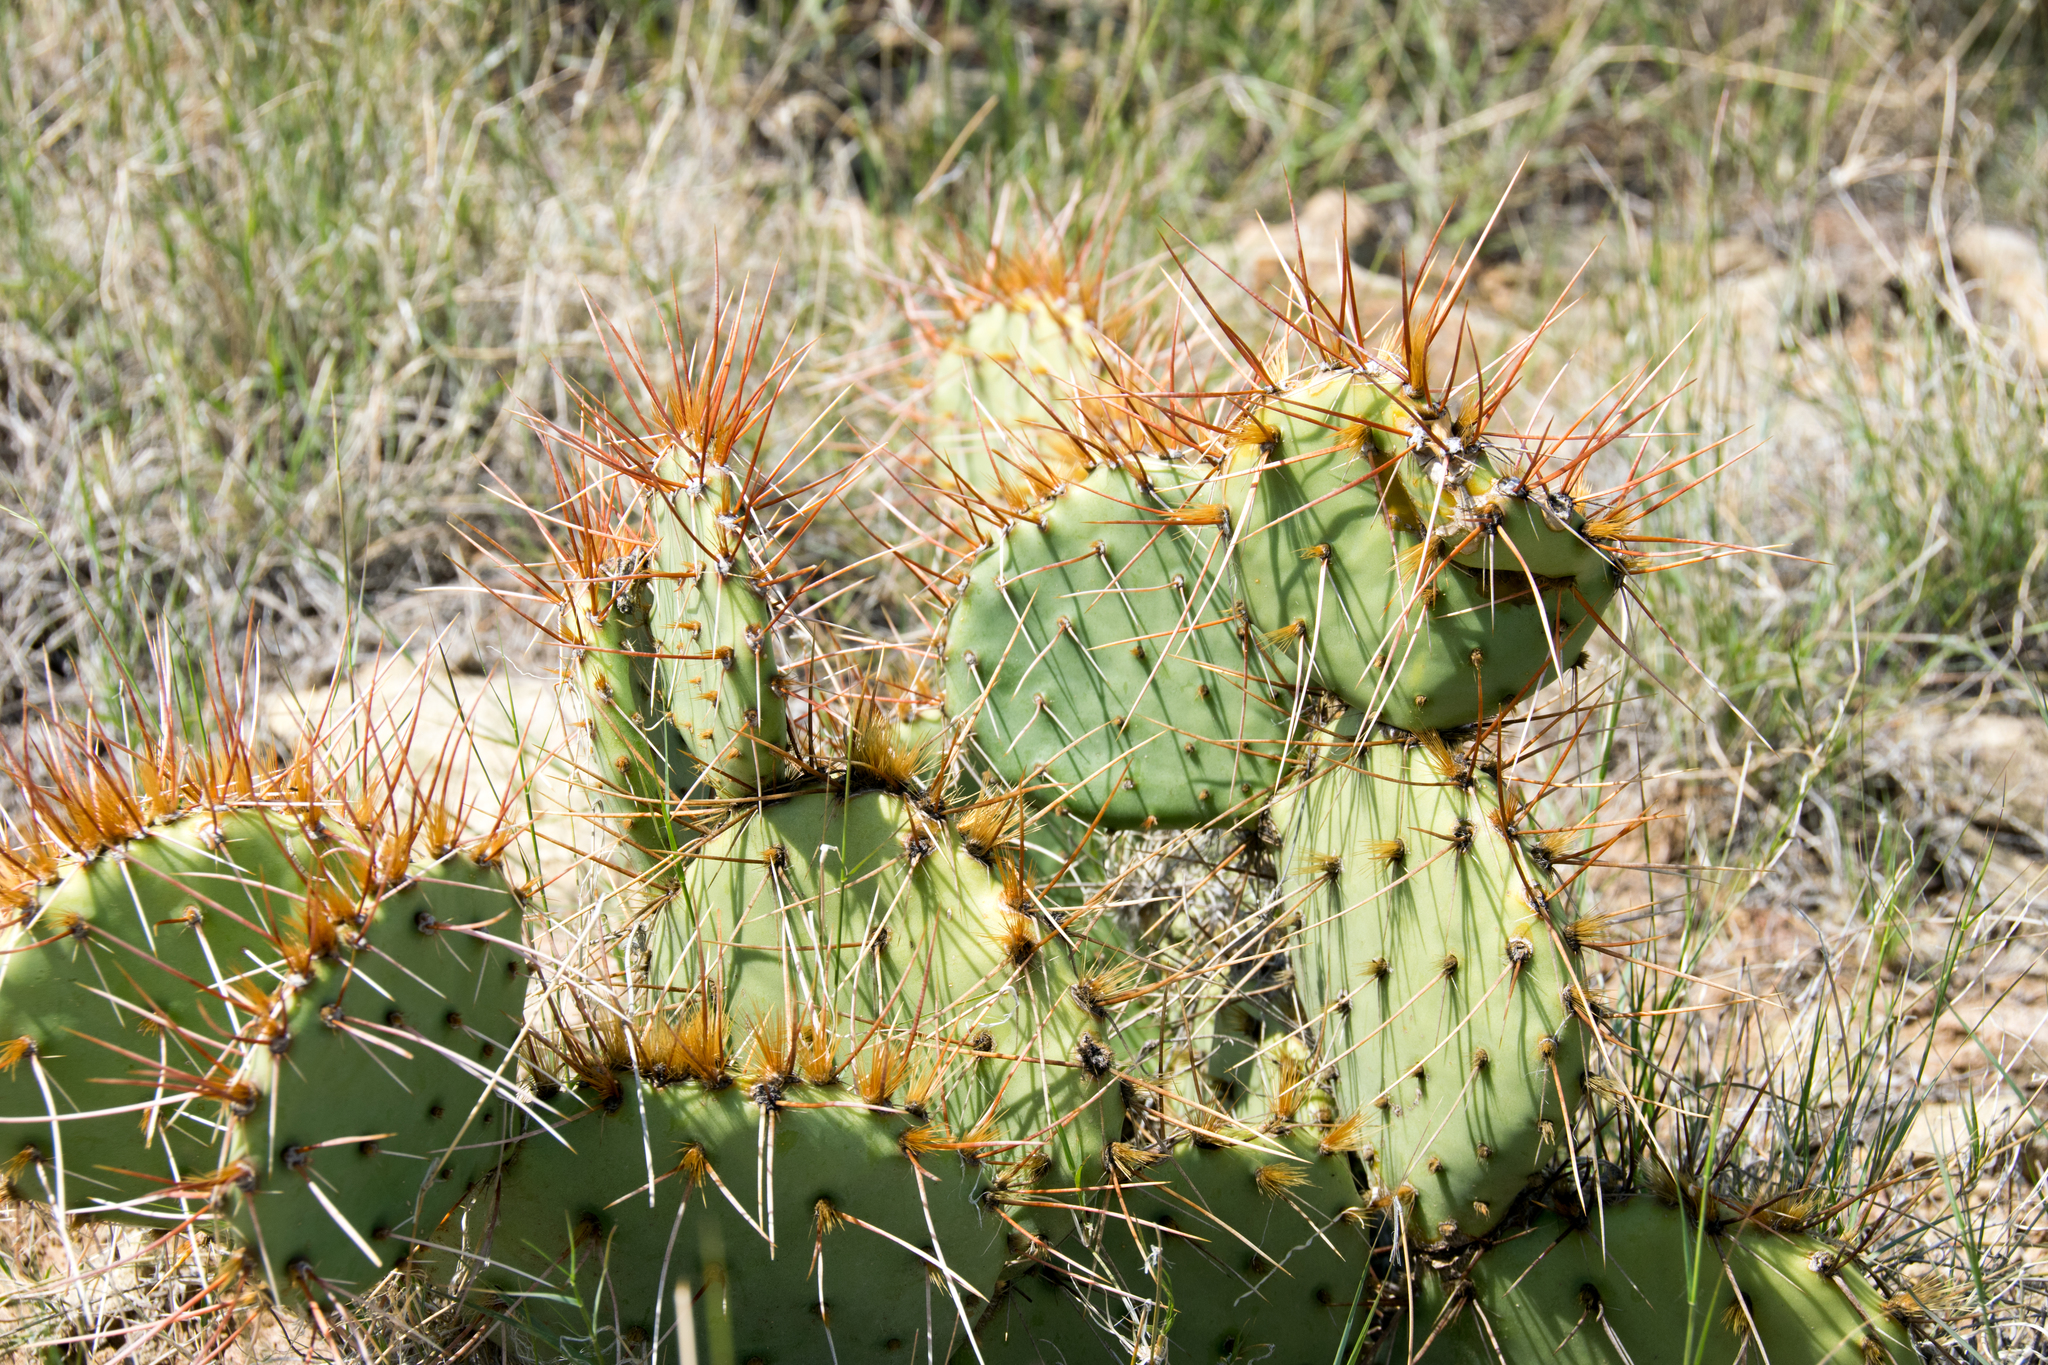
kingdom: Plantae
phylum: Tracheophyta
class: Magnoliopsida
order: Caryophyllales
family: Cactaceae
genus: Opuntia
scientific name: Opuntia phaeacantha
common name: New mexico prickly-pear
